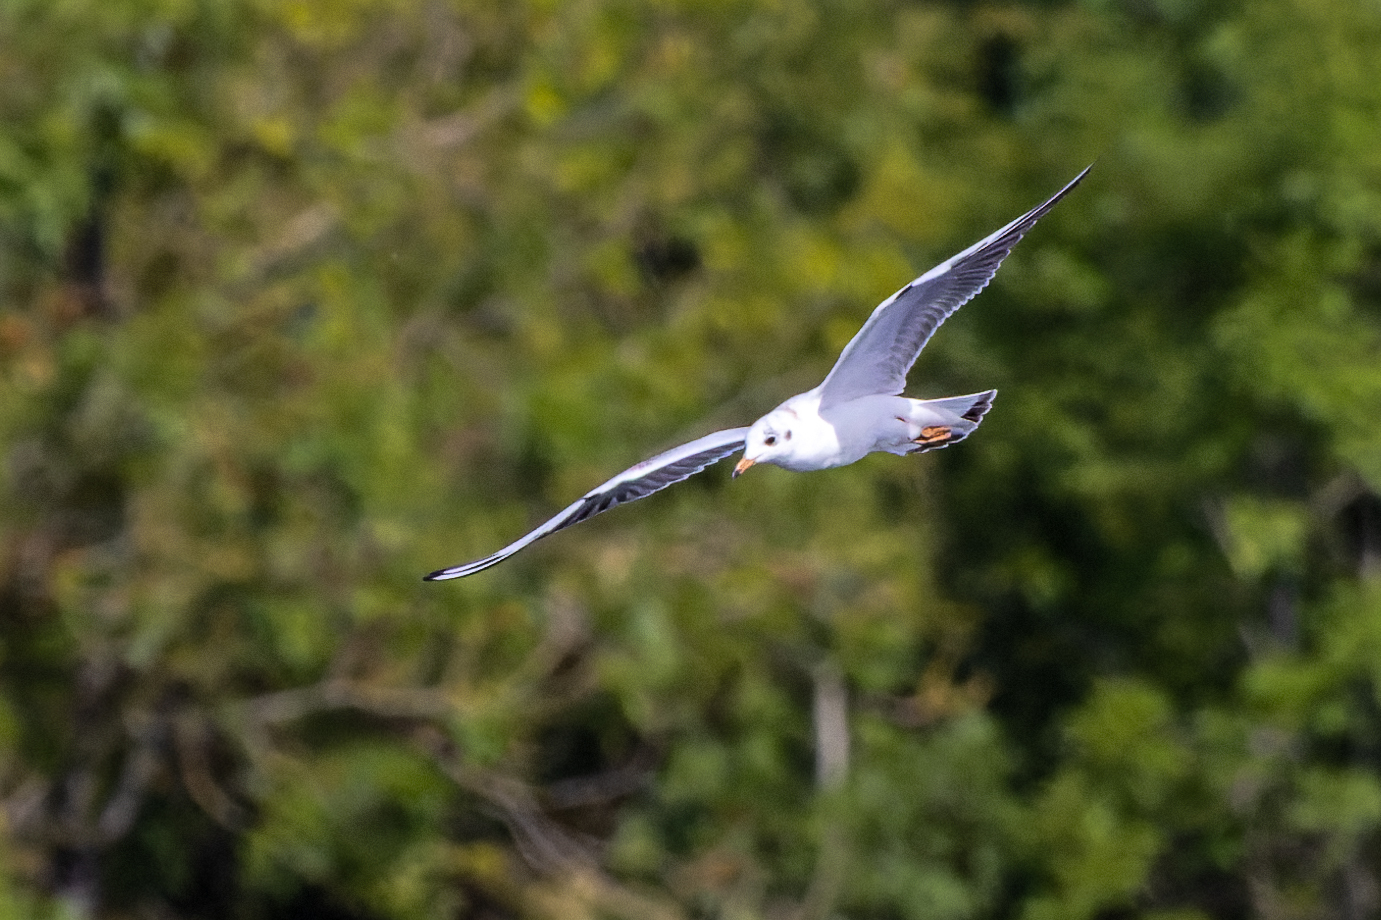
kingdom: Animalia
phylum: Chordata
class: Aves
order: Charadriiformes
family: Laridae
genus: Chroicocephalus
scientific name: Chroicocephalus ridibundus
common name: Black-headed gull
